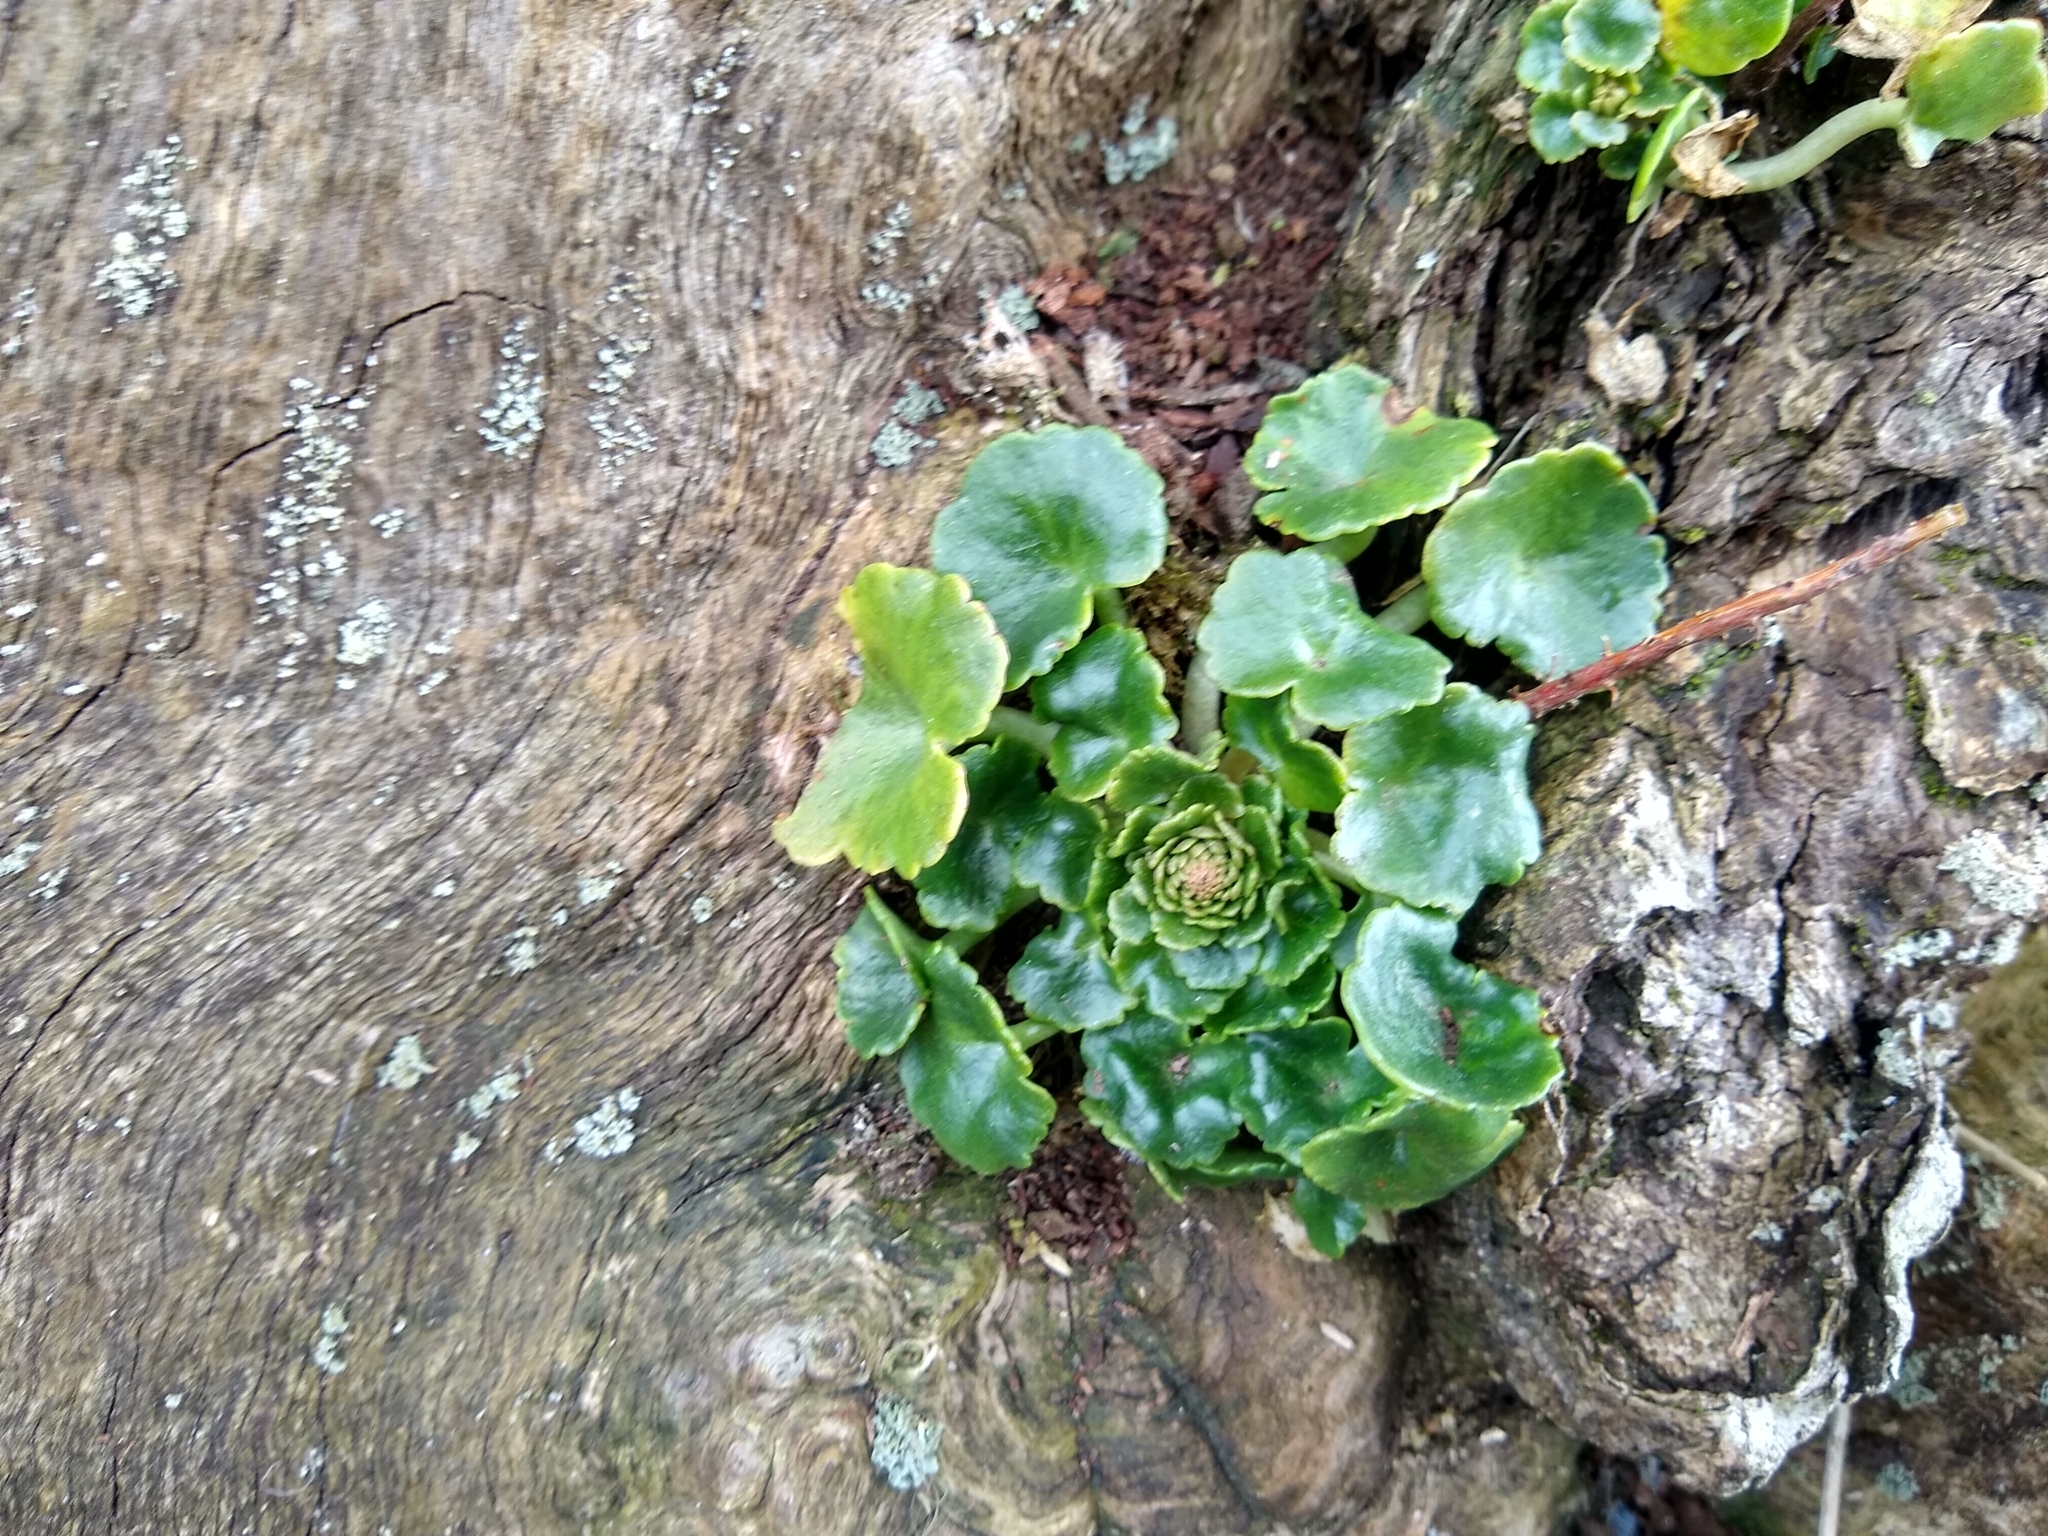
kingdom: Plantae
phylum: Tracheophyta
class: Magnoliopsida
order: Saxifragales
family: Crassulaceae
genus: Umbilicus
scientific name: Umbilicus rupestris
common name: Navelwort
